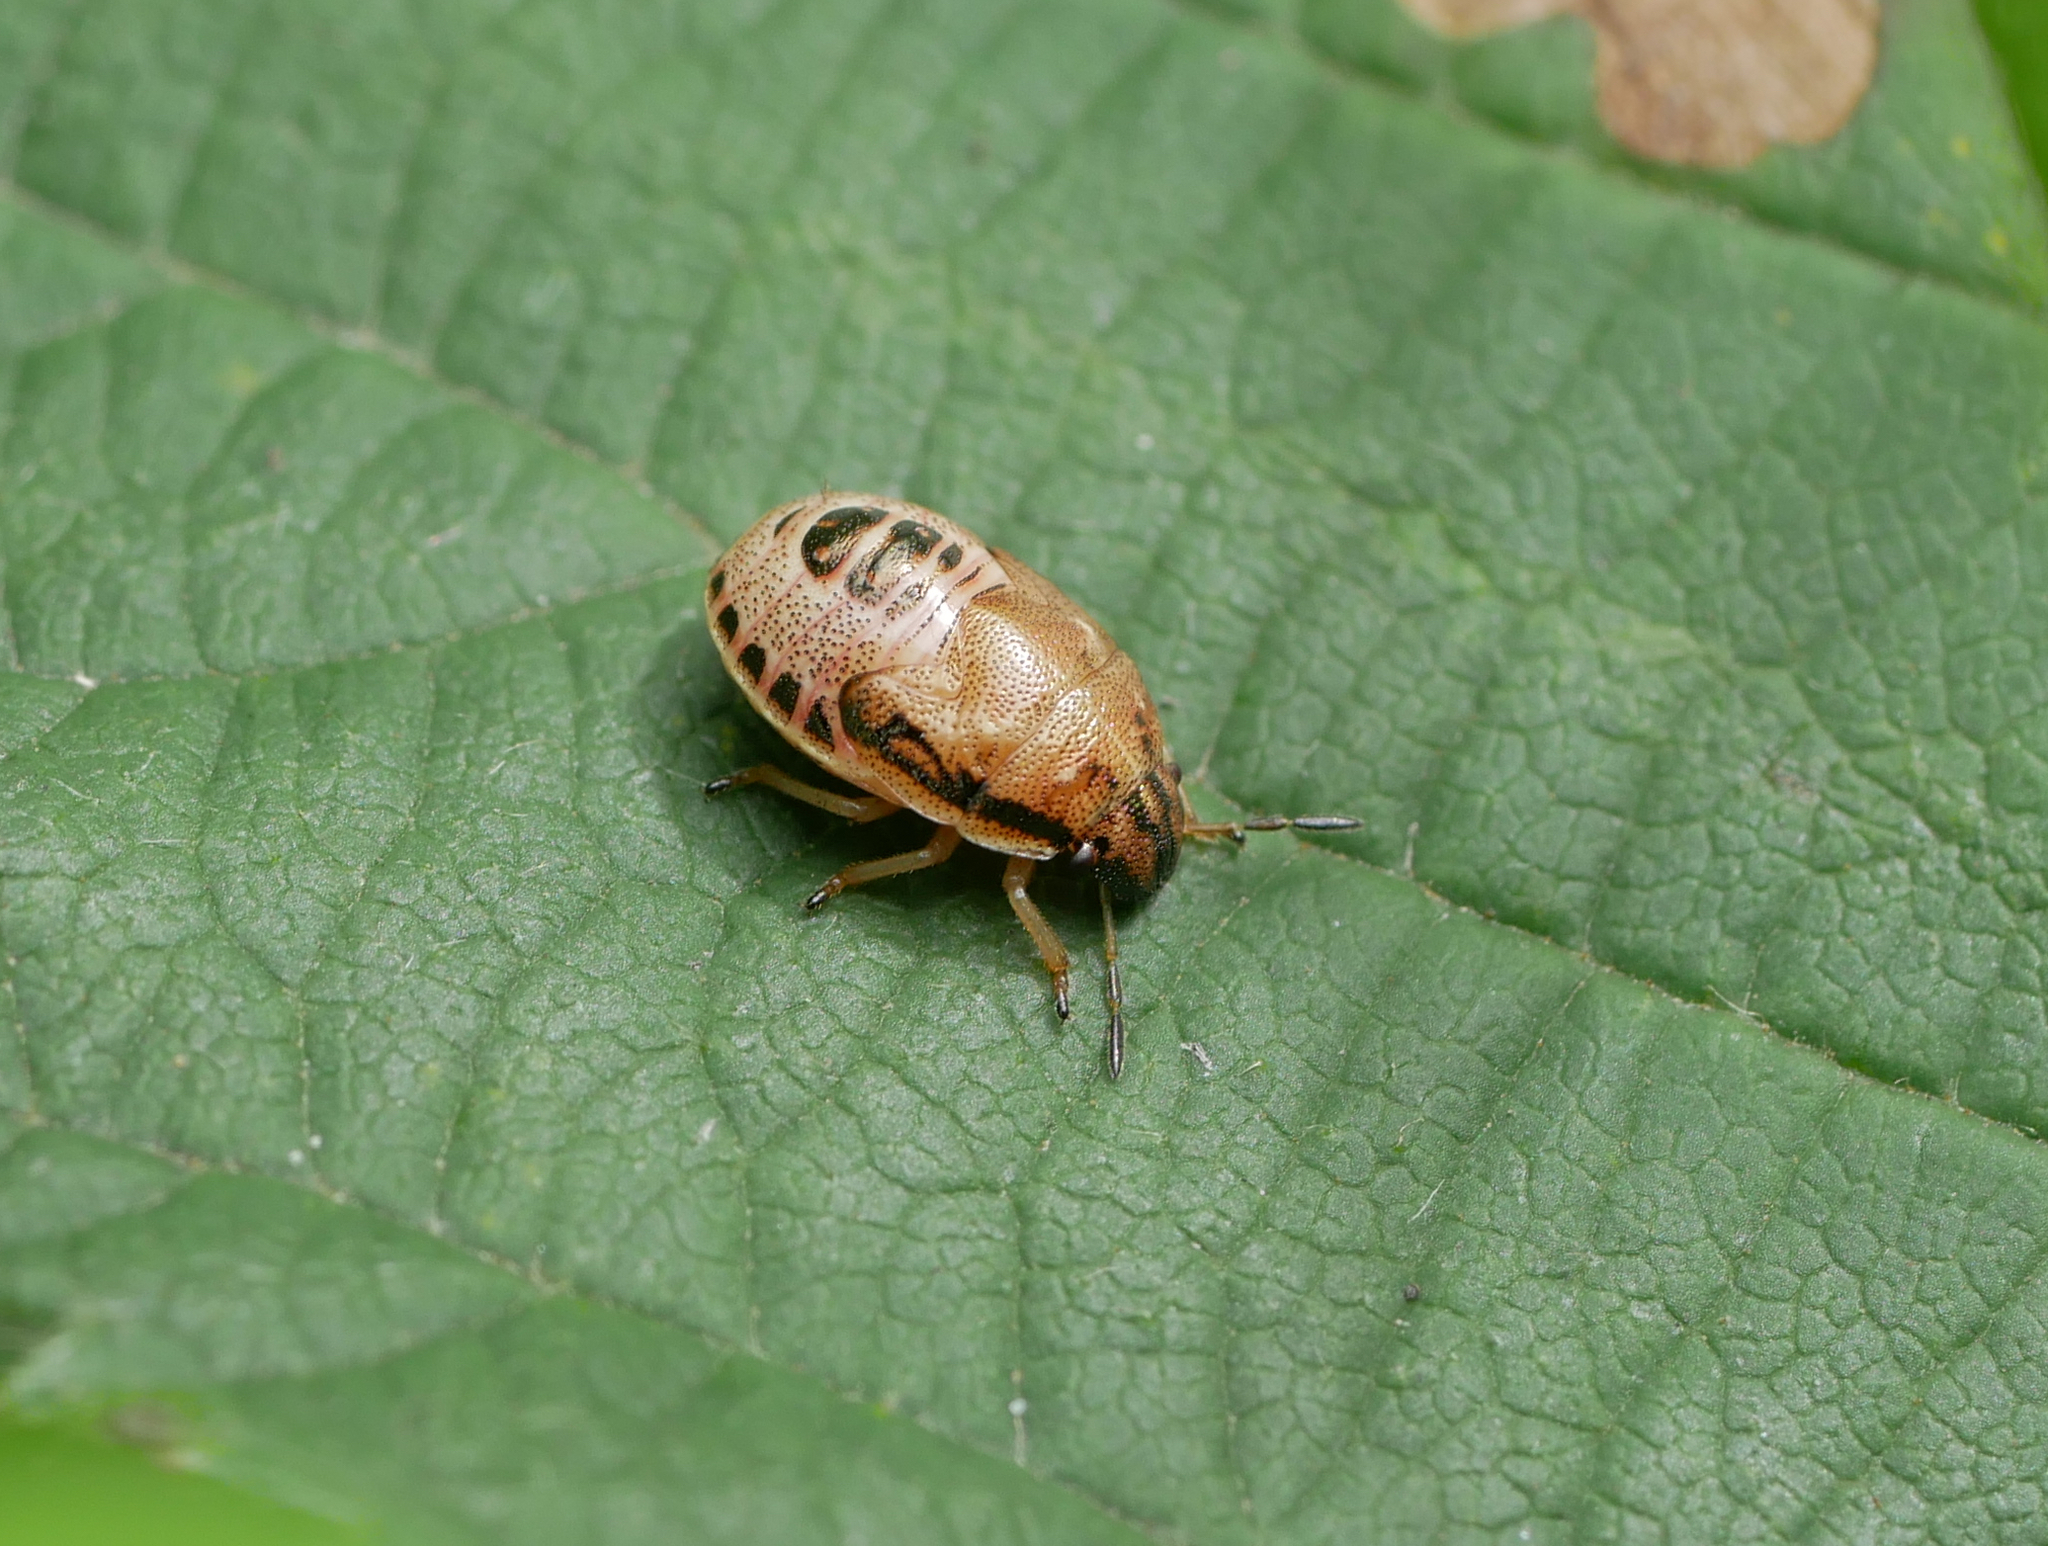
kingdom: Animalia
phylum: Arthropoda
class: Insecta
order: Hemiptera
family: Pentatomidae
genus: Neottiglossa
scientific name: Neottiglossa pusilla
